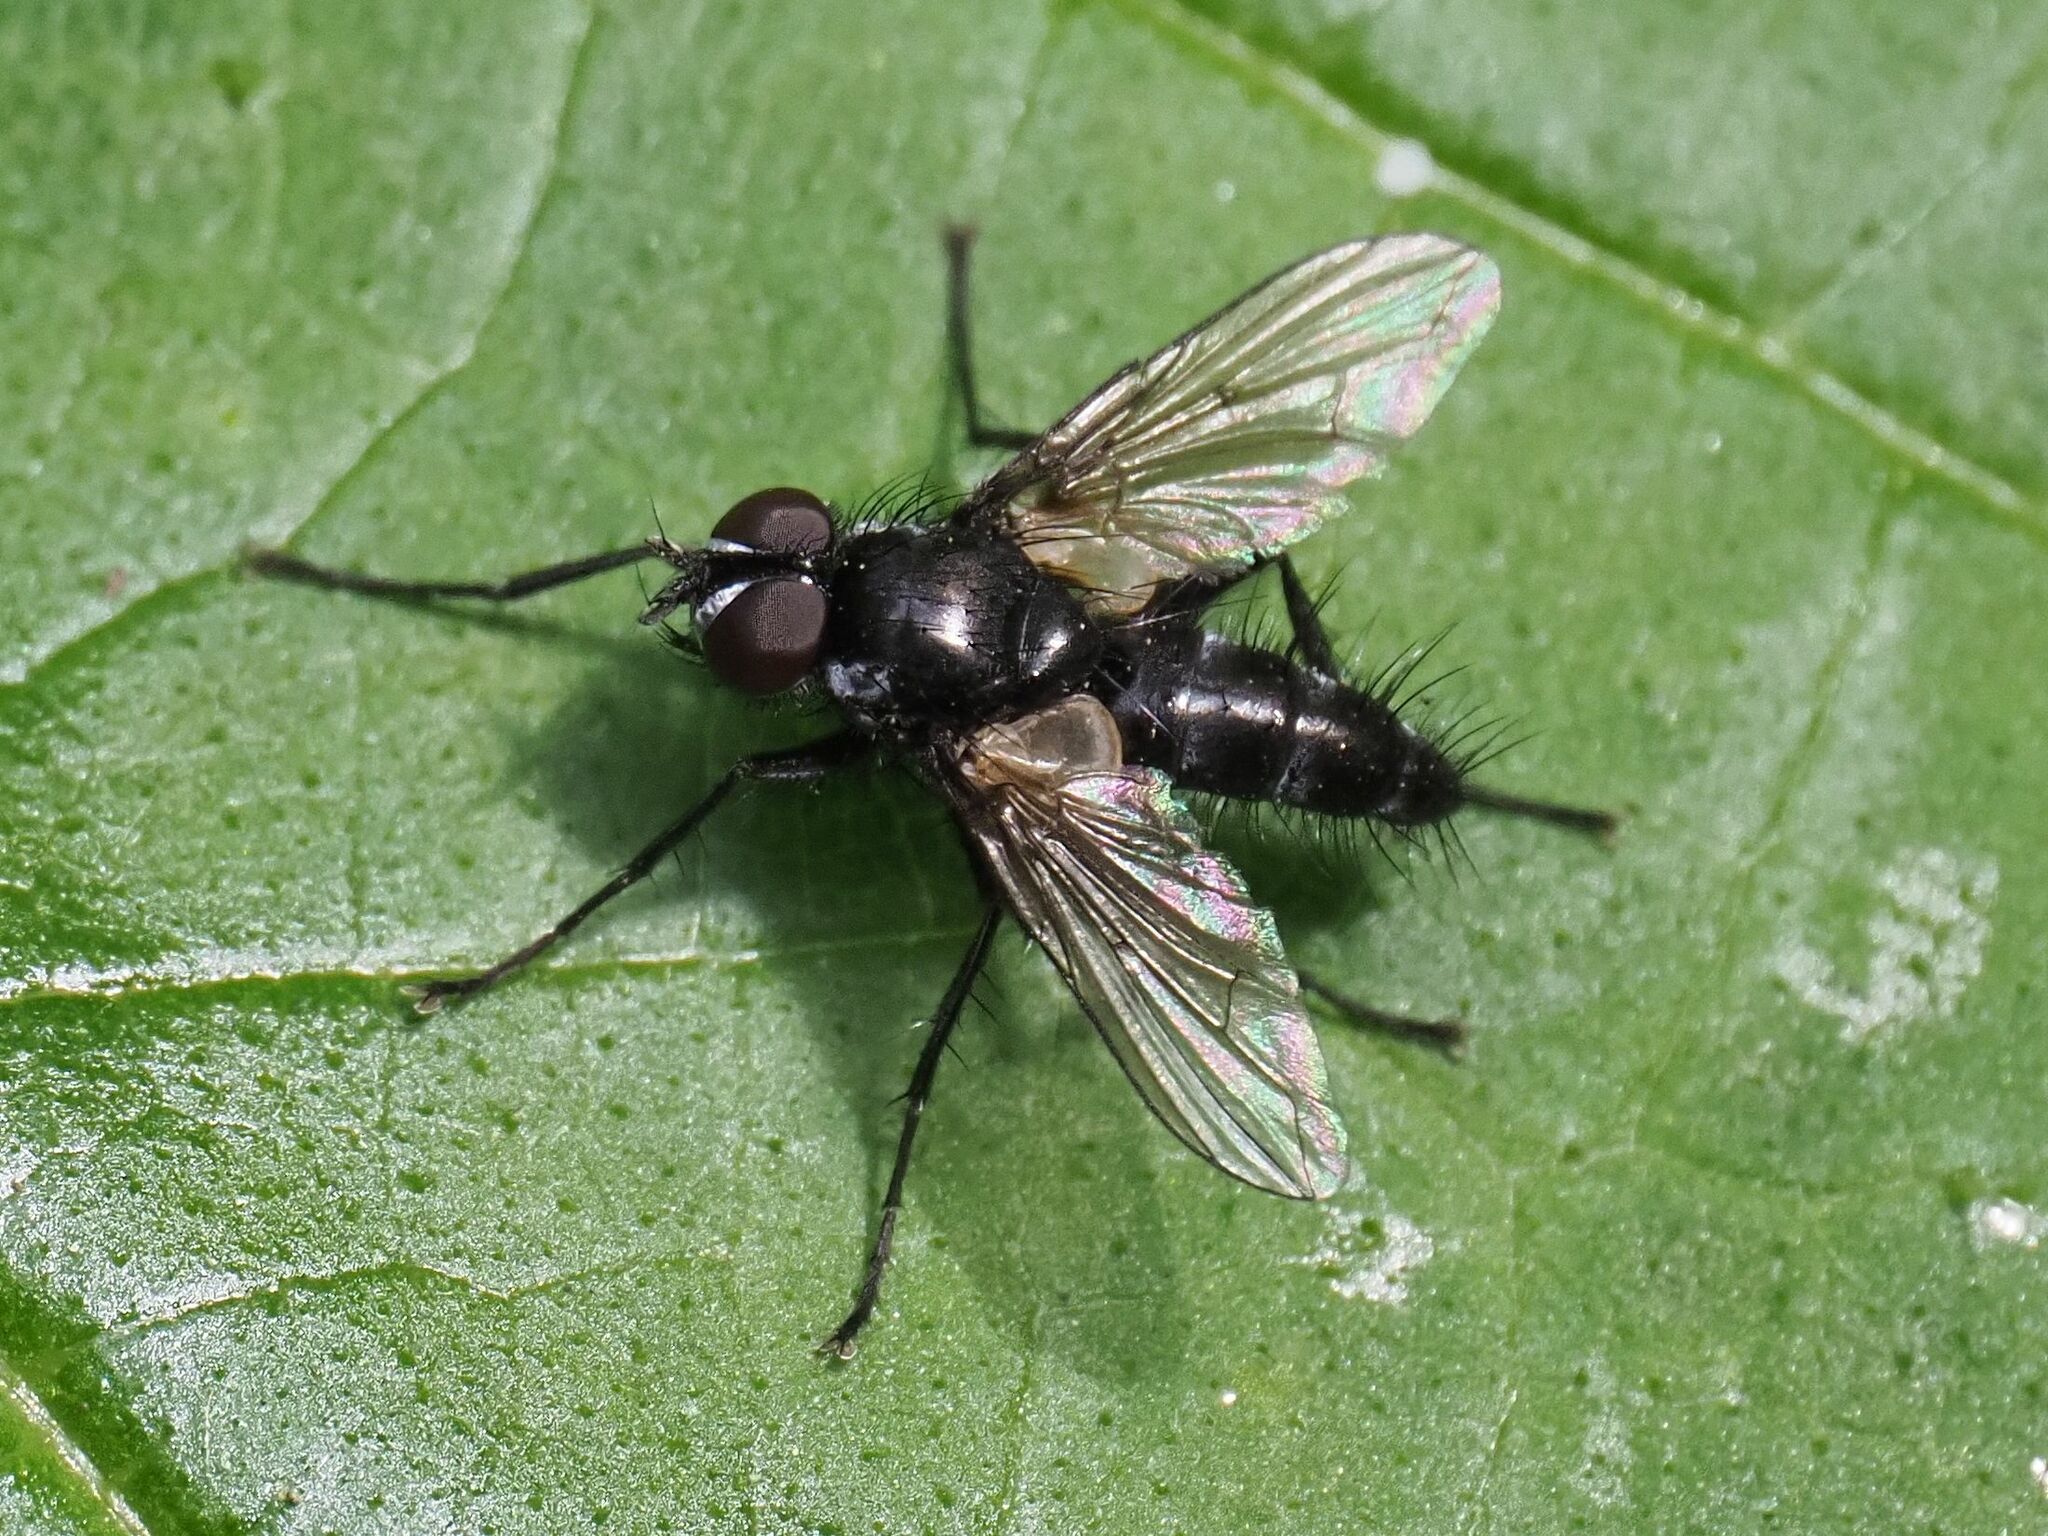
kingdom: Animalia
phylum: Arthropoda
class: Insecta
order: Diptera
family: Tachinidae
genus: Phyllomya
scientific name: Phyllomya volvulus
